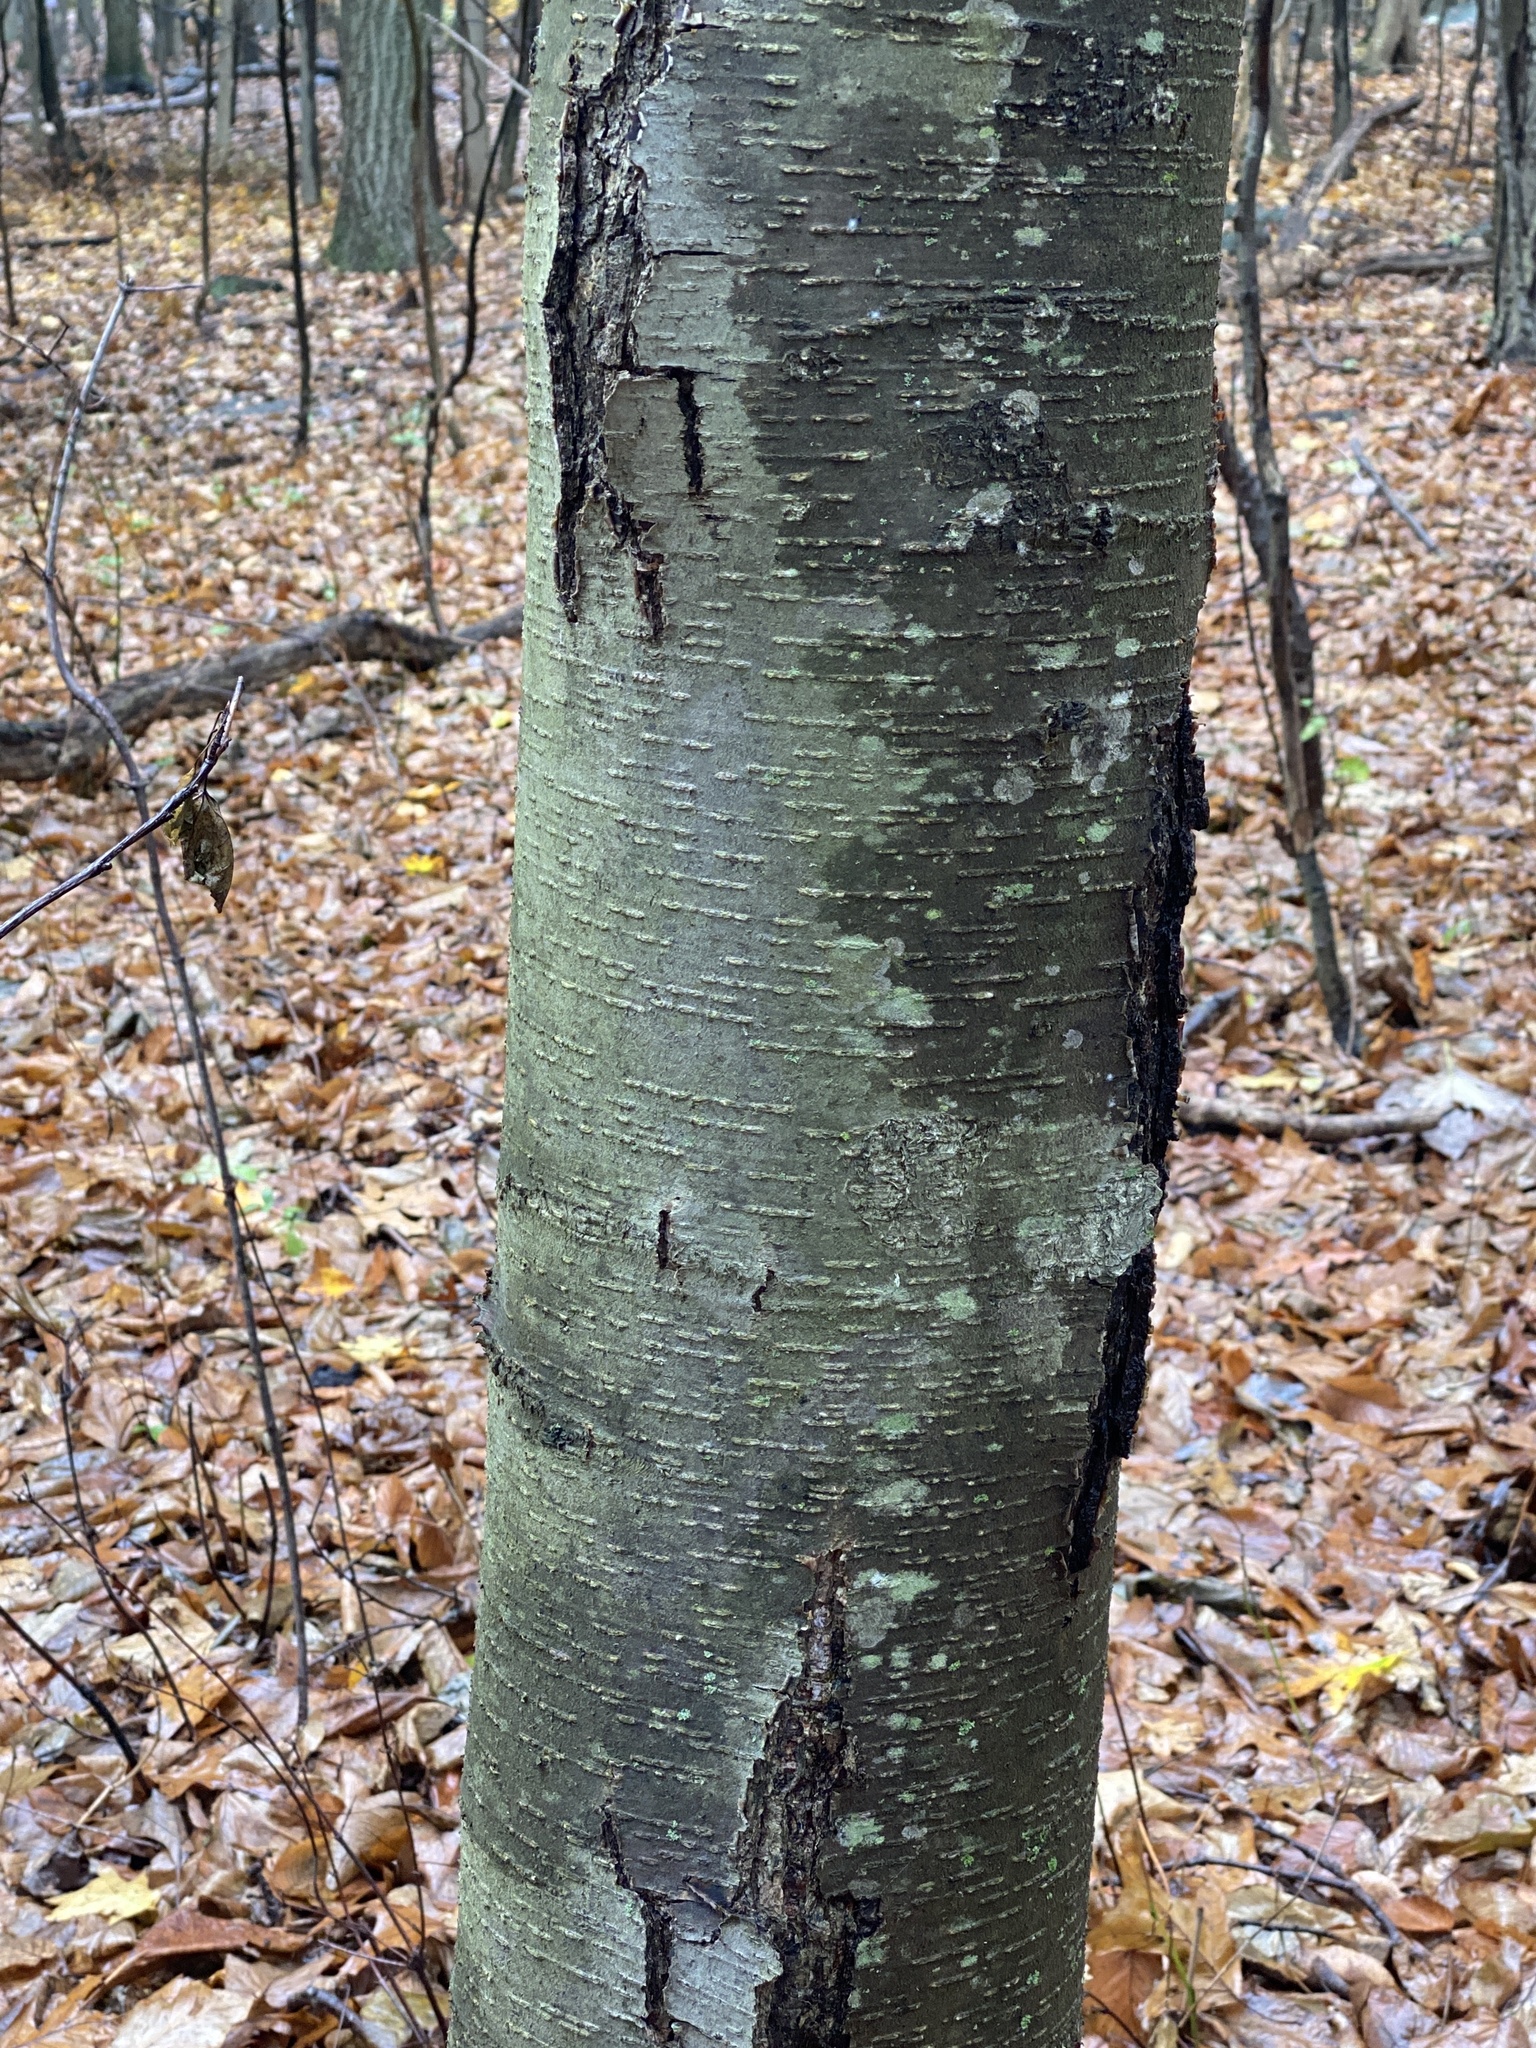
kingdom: Plantae
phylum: Tracheophyta
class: Magnoliopsida
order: Fagales
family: Betulaceae
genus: Betula
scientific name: Betula lenta
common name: Black birch
